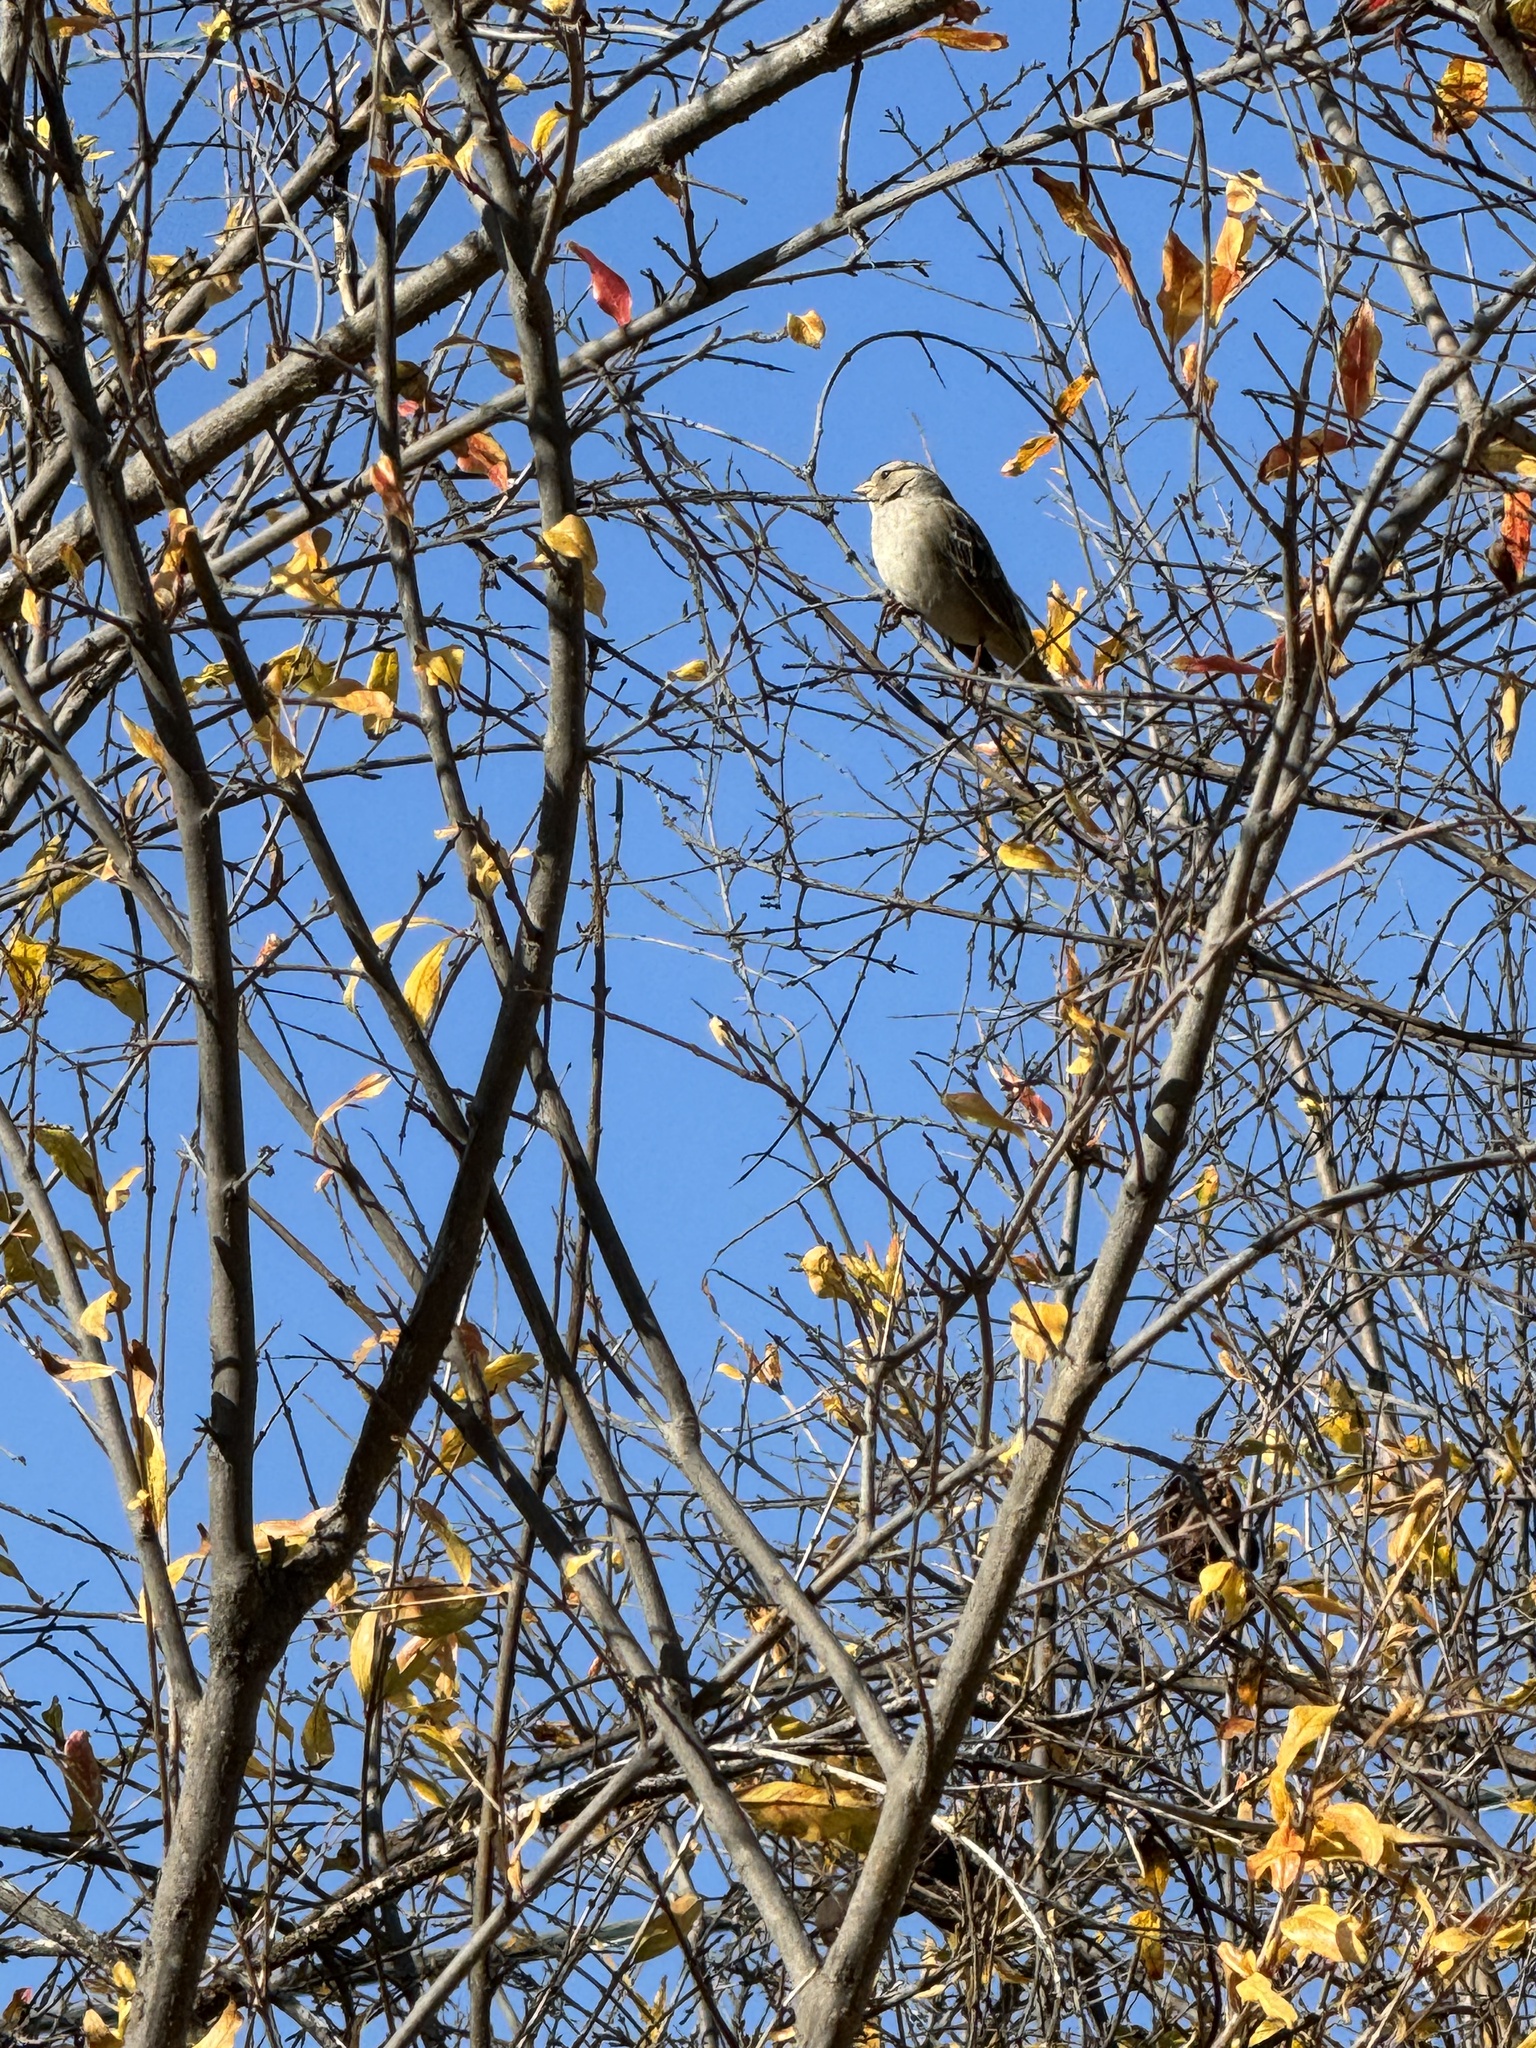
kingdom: Animalia
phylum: Chordata
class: Aves
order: Passeriformes
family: Passerellidae
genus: Zonotrichia
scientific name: Zonotrichia leucophrys
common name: White-crowned sparrow
